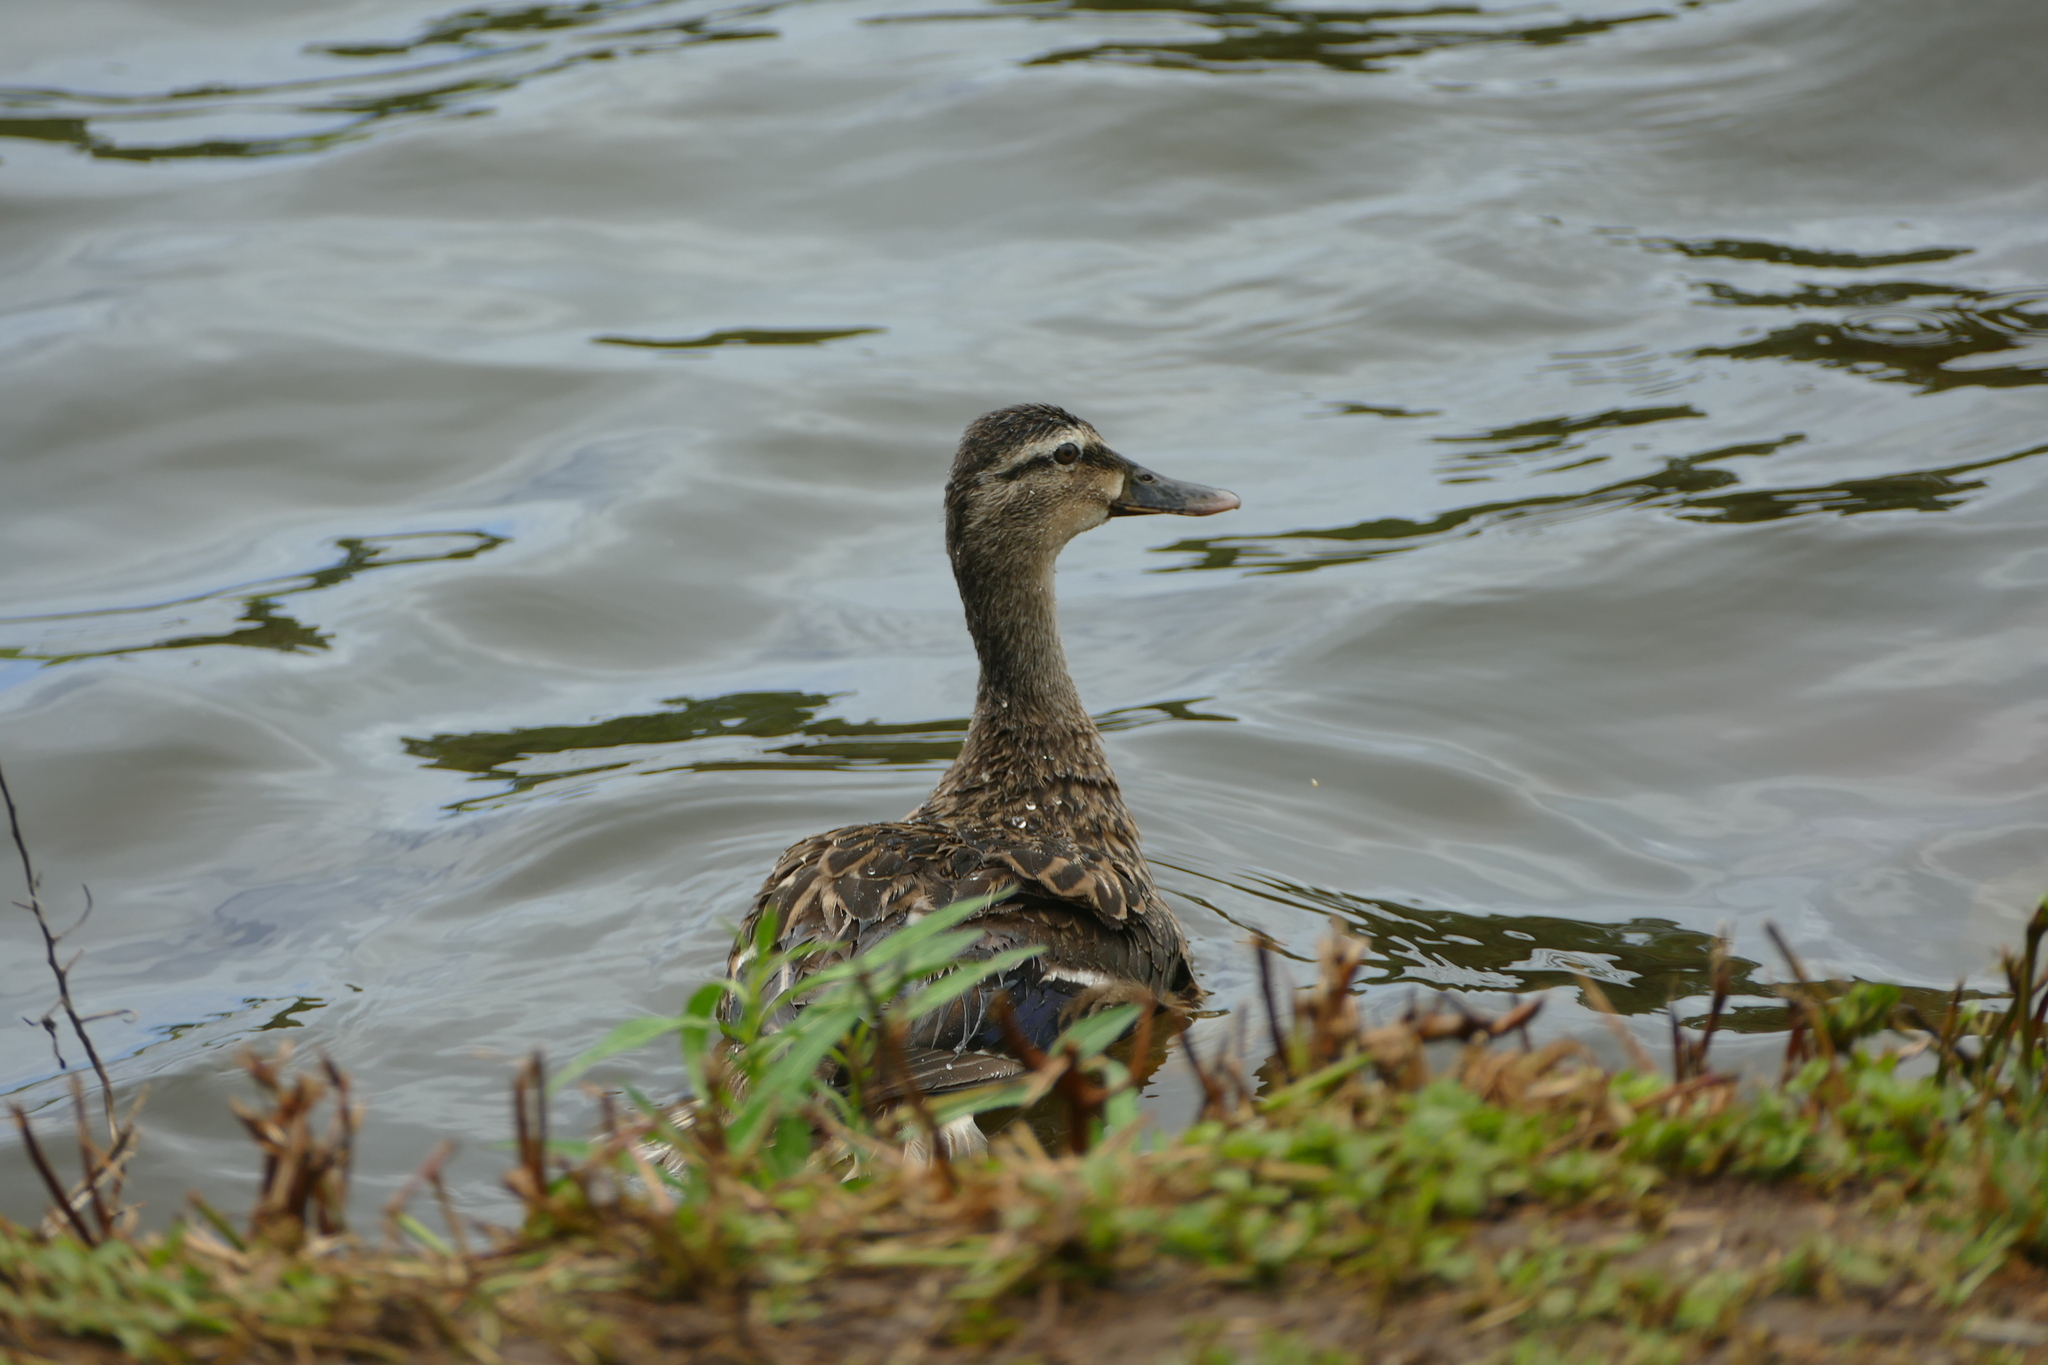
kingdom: Animalia
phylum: Chordata
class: Aves
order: Anseriformes
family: Anatidae
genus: Anas
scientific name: Anas platyrhynchos
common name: Mallard
